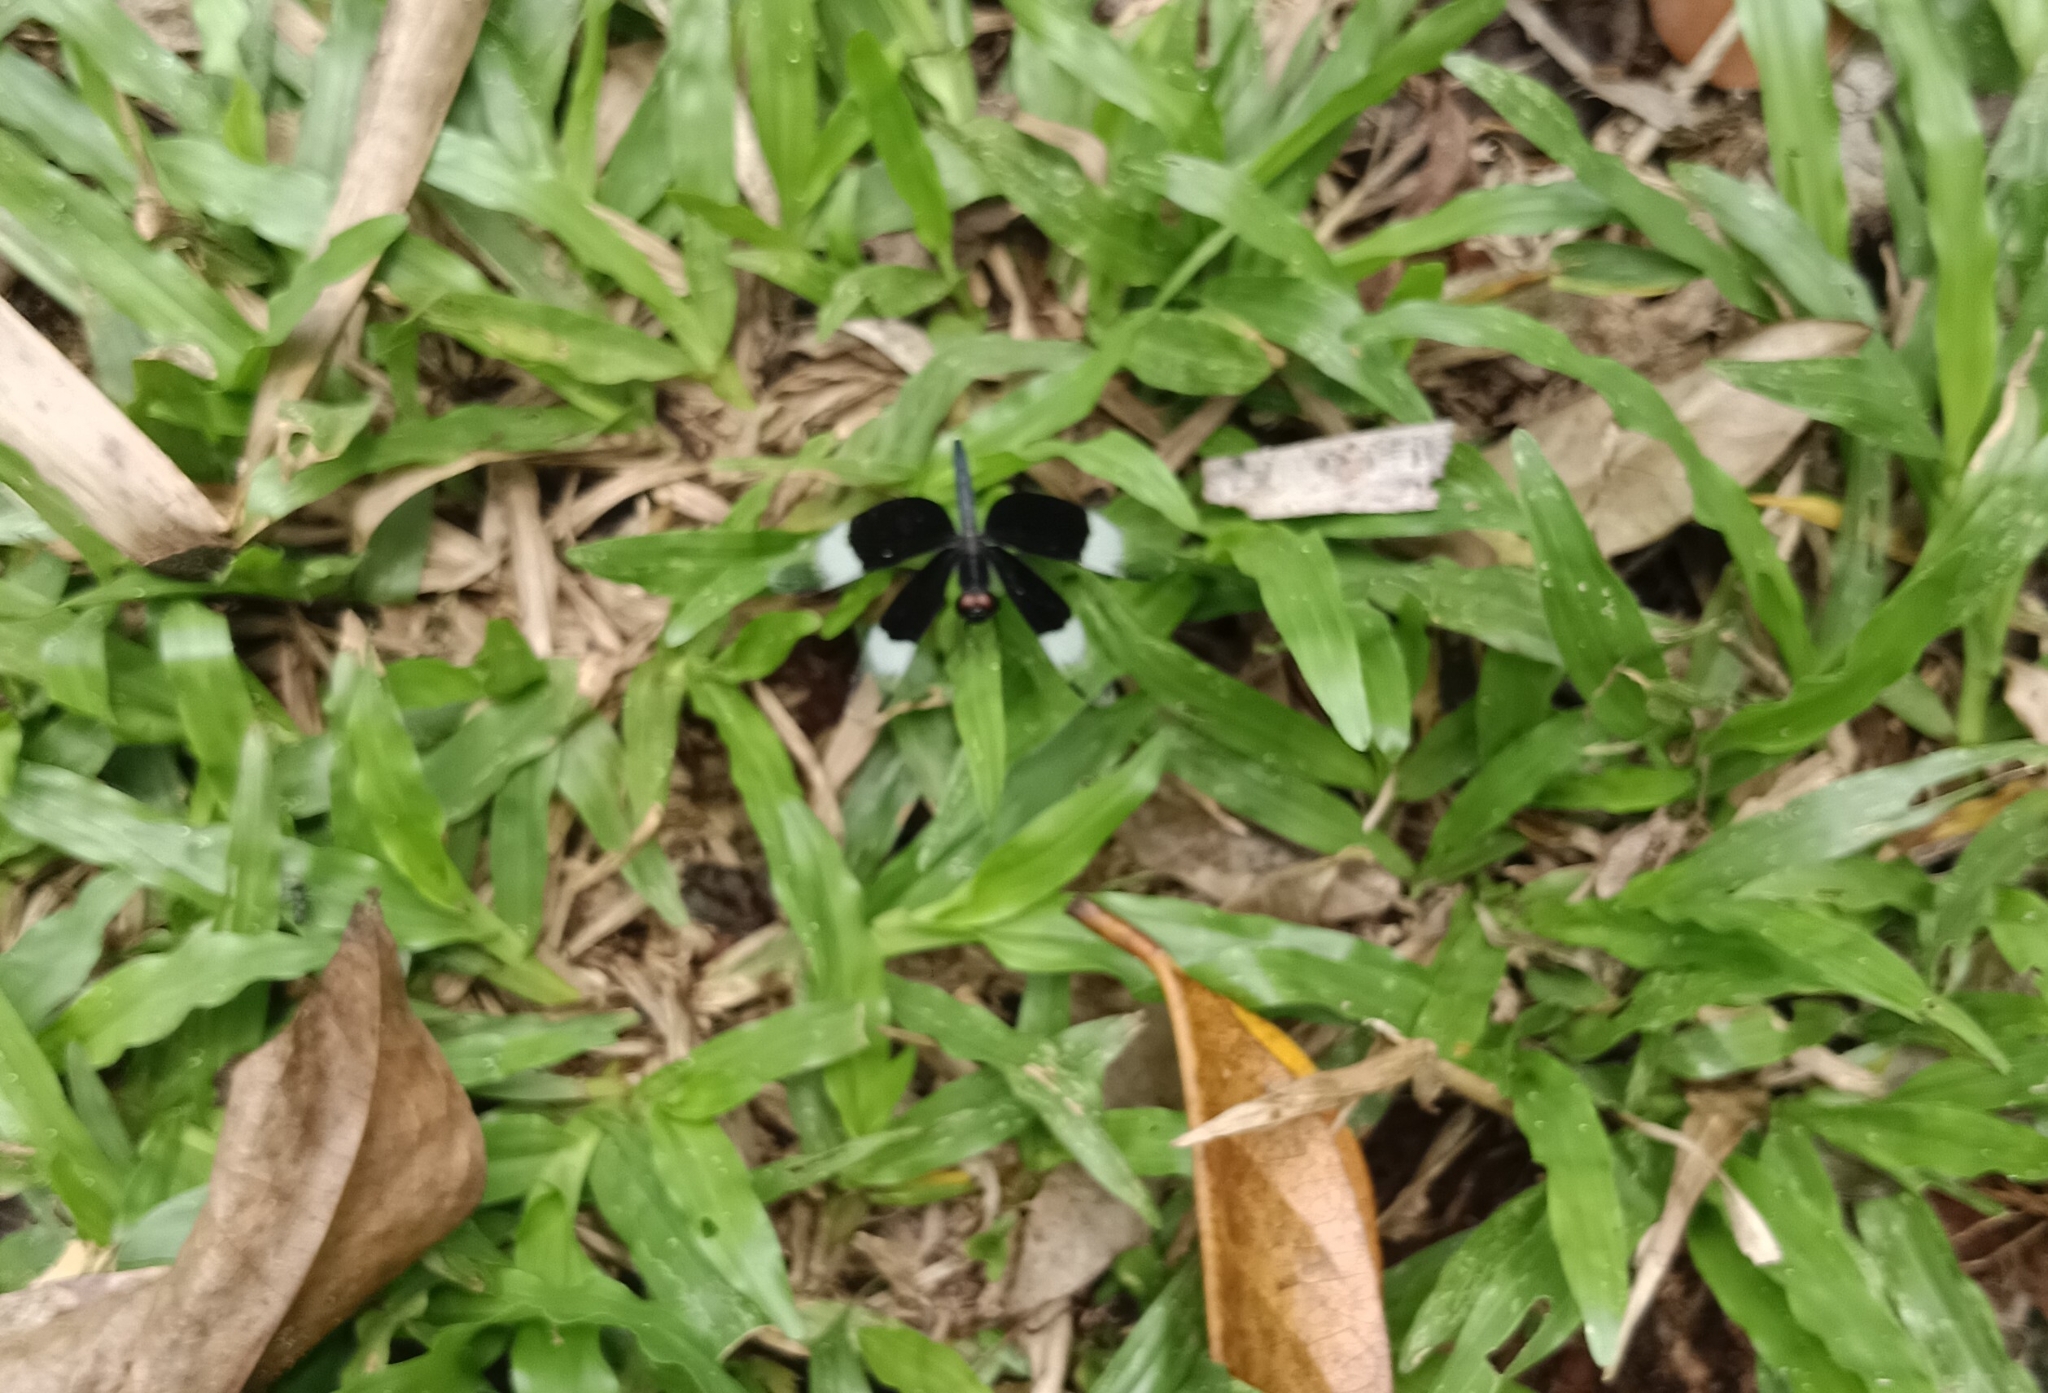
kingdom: Animalia
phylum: Arthropoda
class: Insecta
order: Odonata
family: Libellulidae
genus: Neurothemis
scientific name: Neurothemis tullia
